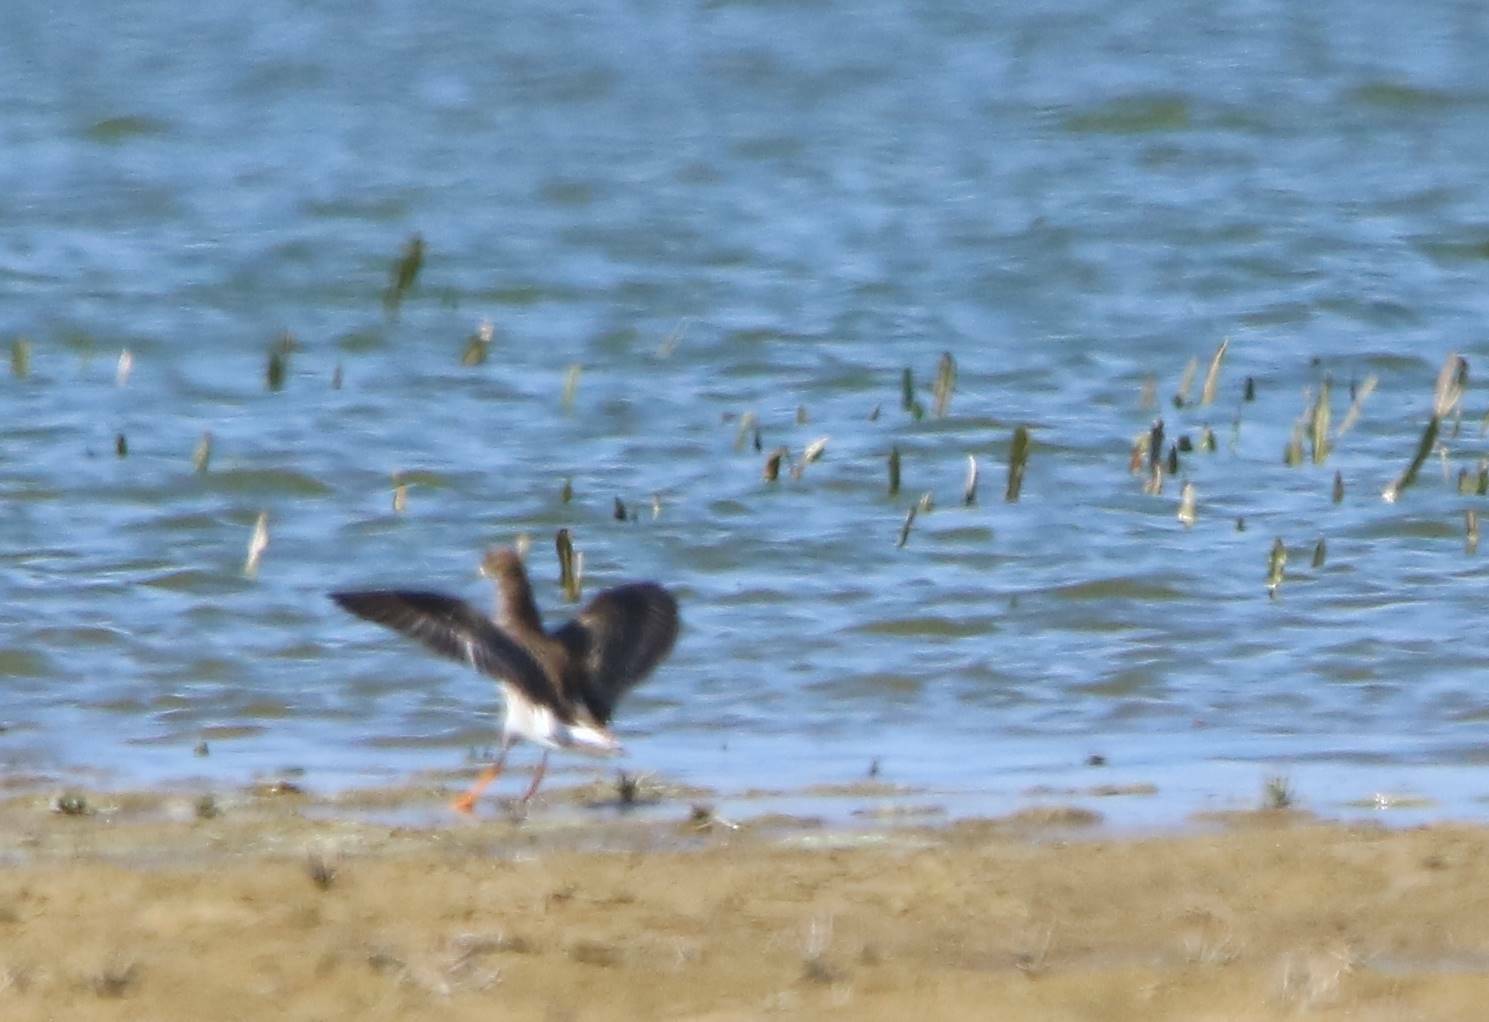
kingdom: Animalia
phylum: Chordata
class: Aves
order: Charadriiformes
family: Scolopacidae
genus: Calidris
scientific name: Calidris pugnax
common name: Ruff
